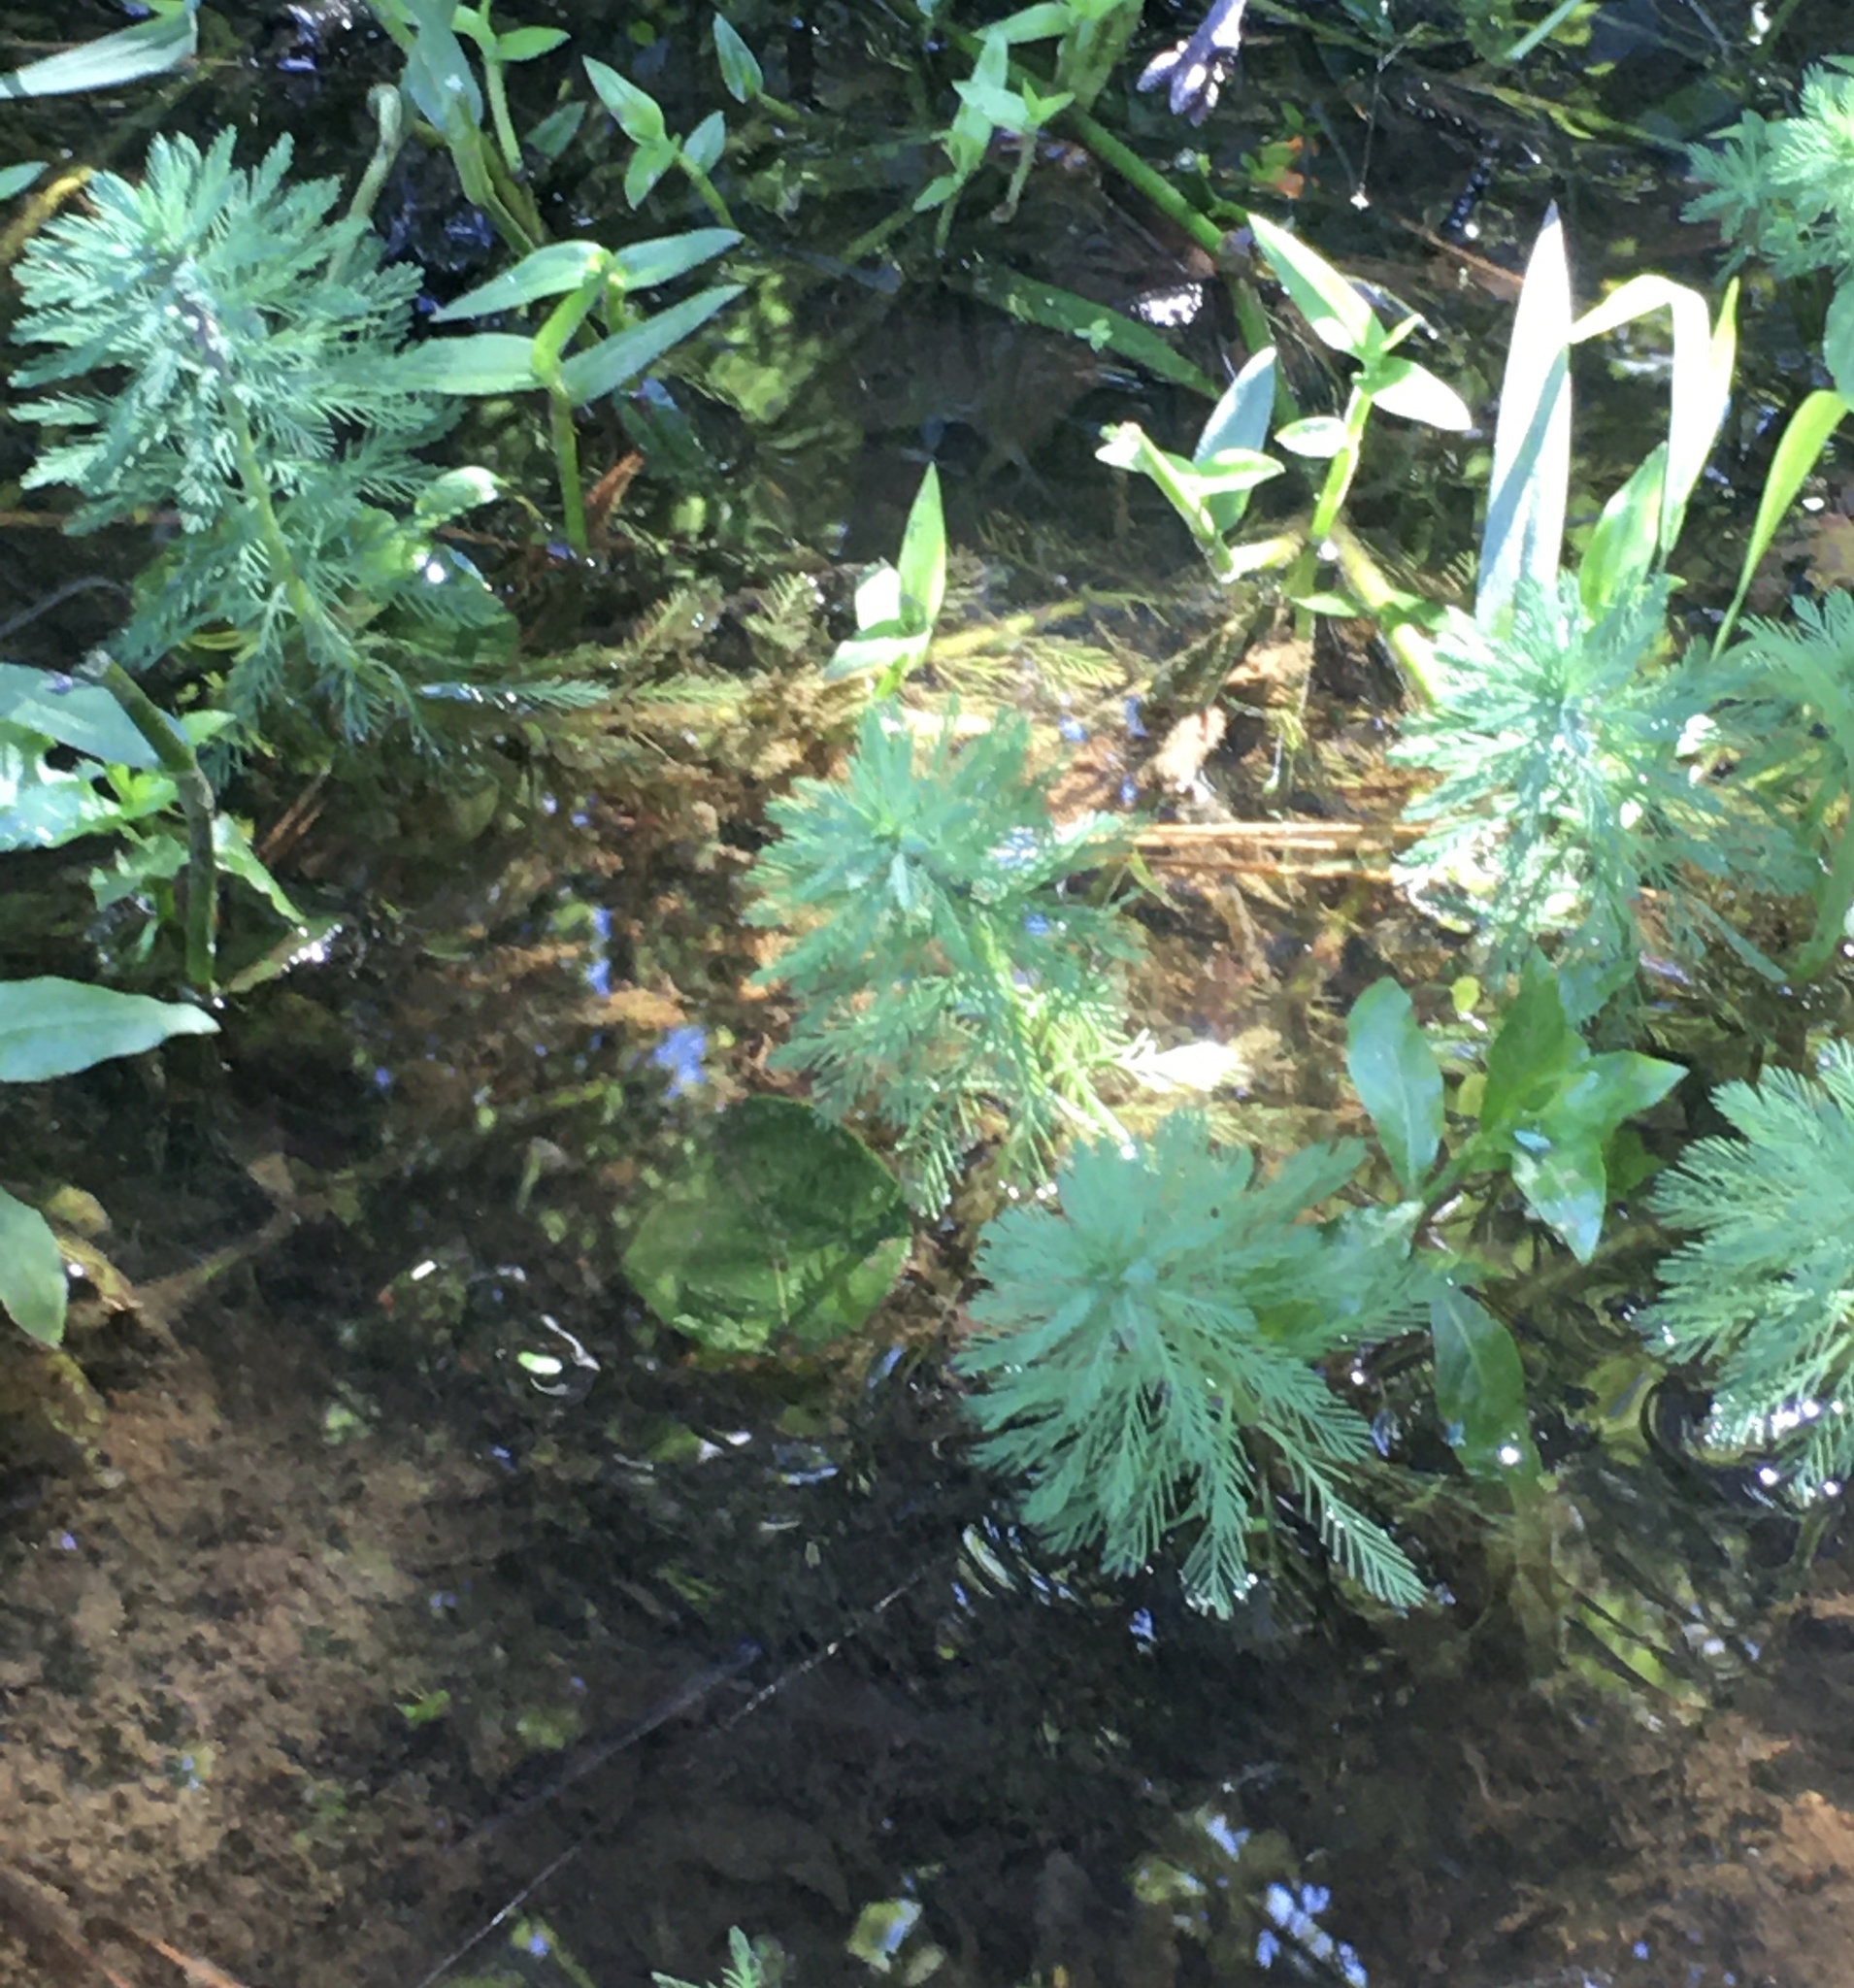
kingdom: Plantae
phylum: Tracheophyta
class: Magnoliopsida
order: Saxifragales
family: Haloragaceae
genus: Myriophyllum
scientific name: Myriophyllum aquaticum
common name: Parrot's feather
